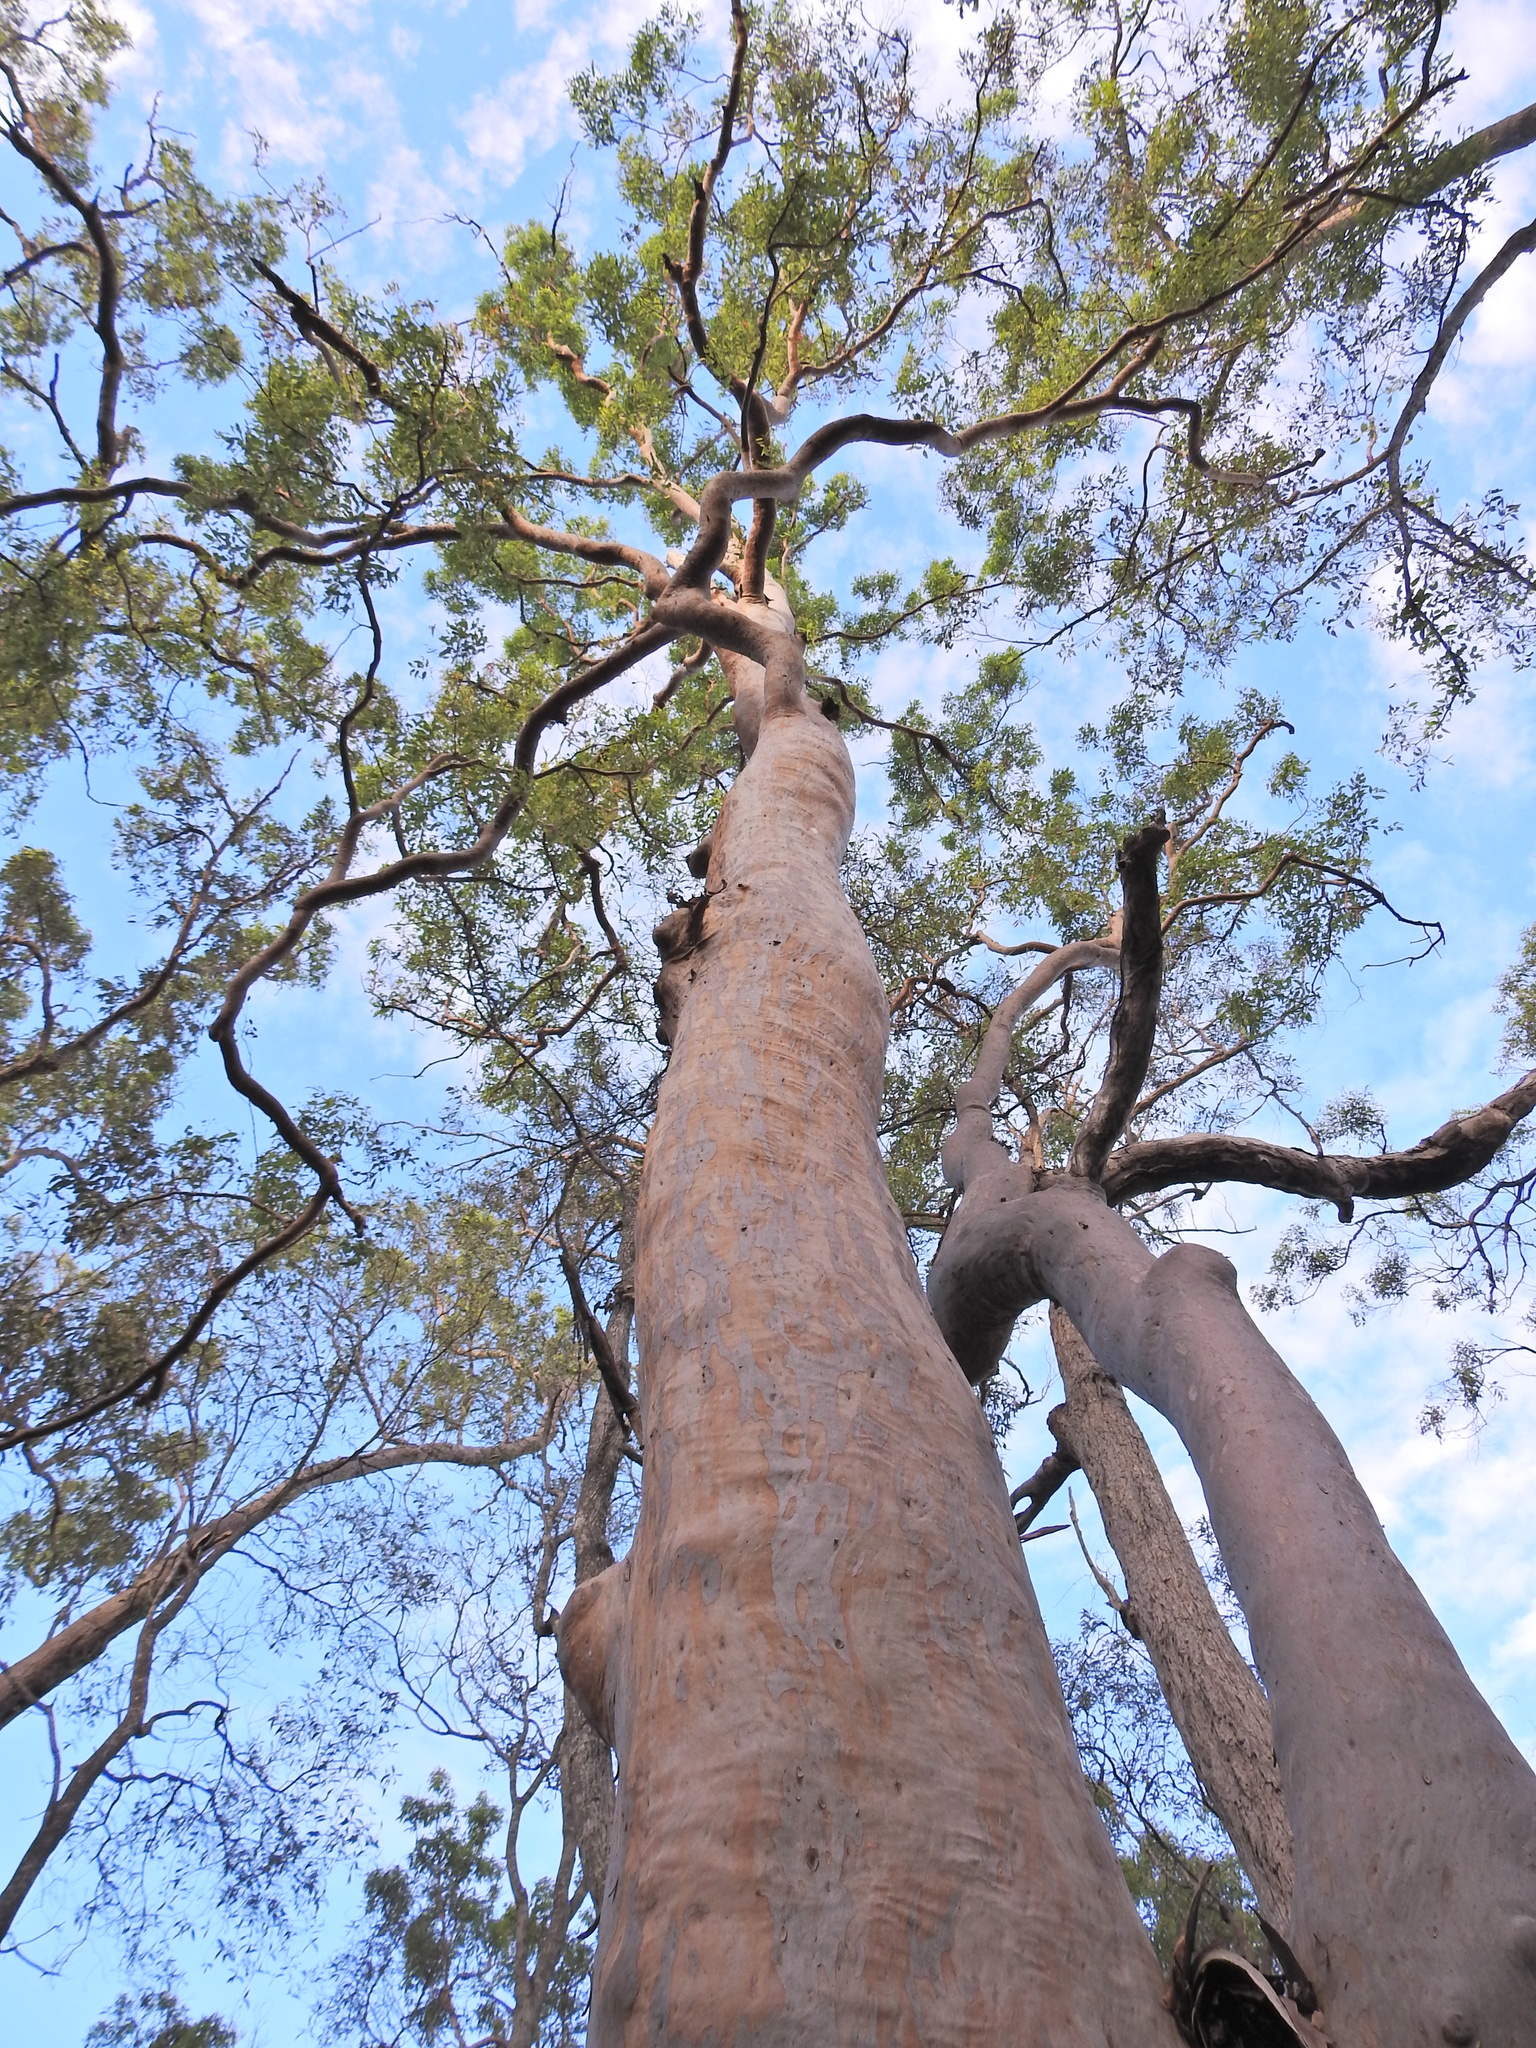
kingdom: Plantae
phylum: Tracheophyta
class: Magnoliopsida
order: Myrtales
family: Myrtaceae
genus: Angophora
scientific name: Angophora leiocarpa
